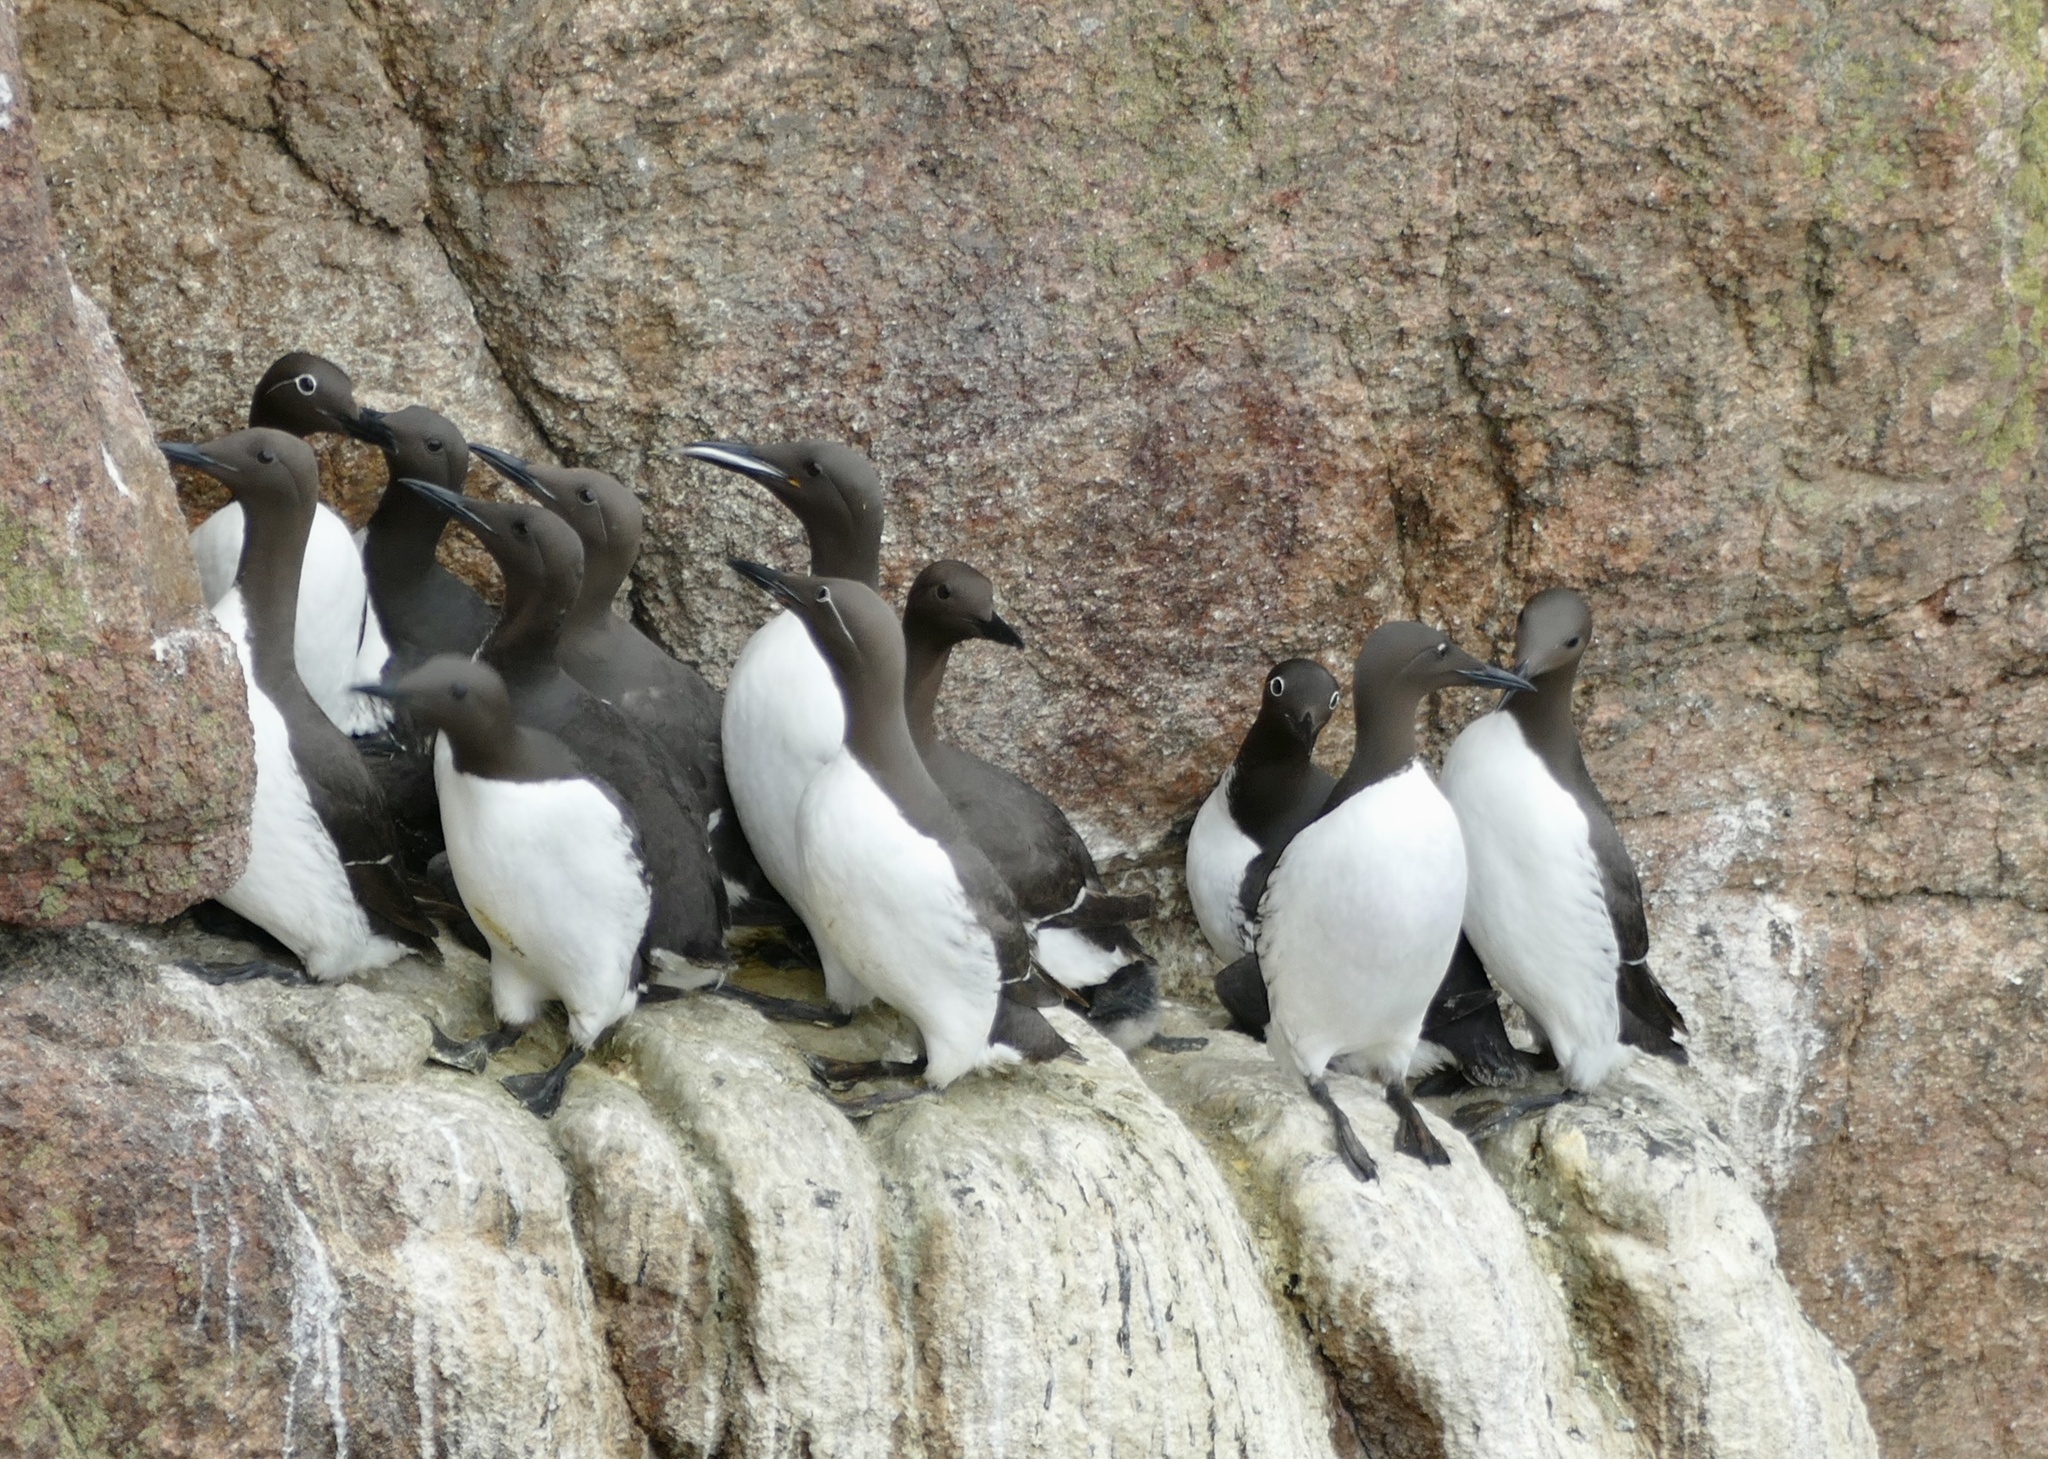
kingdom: Animalia
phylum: Chordata
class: Aves
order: Charadriiformes
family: Alcidae
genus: Uria
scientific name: Uria aalge
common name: Common murre
